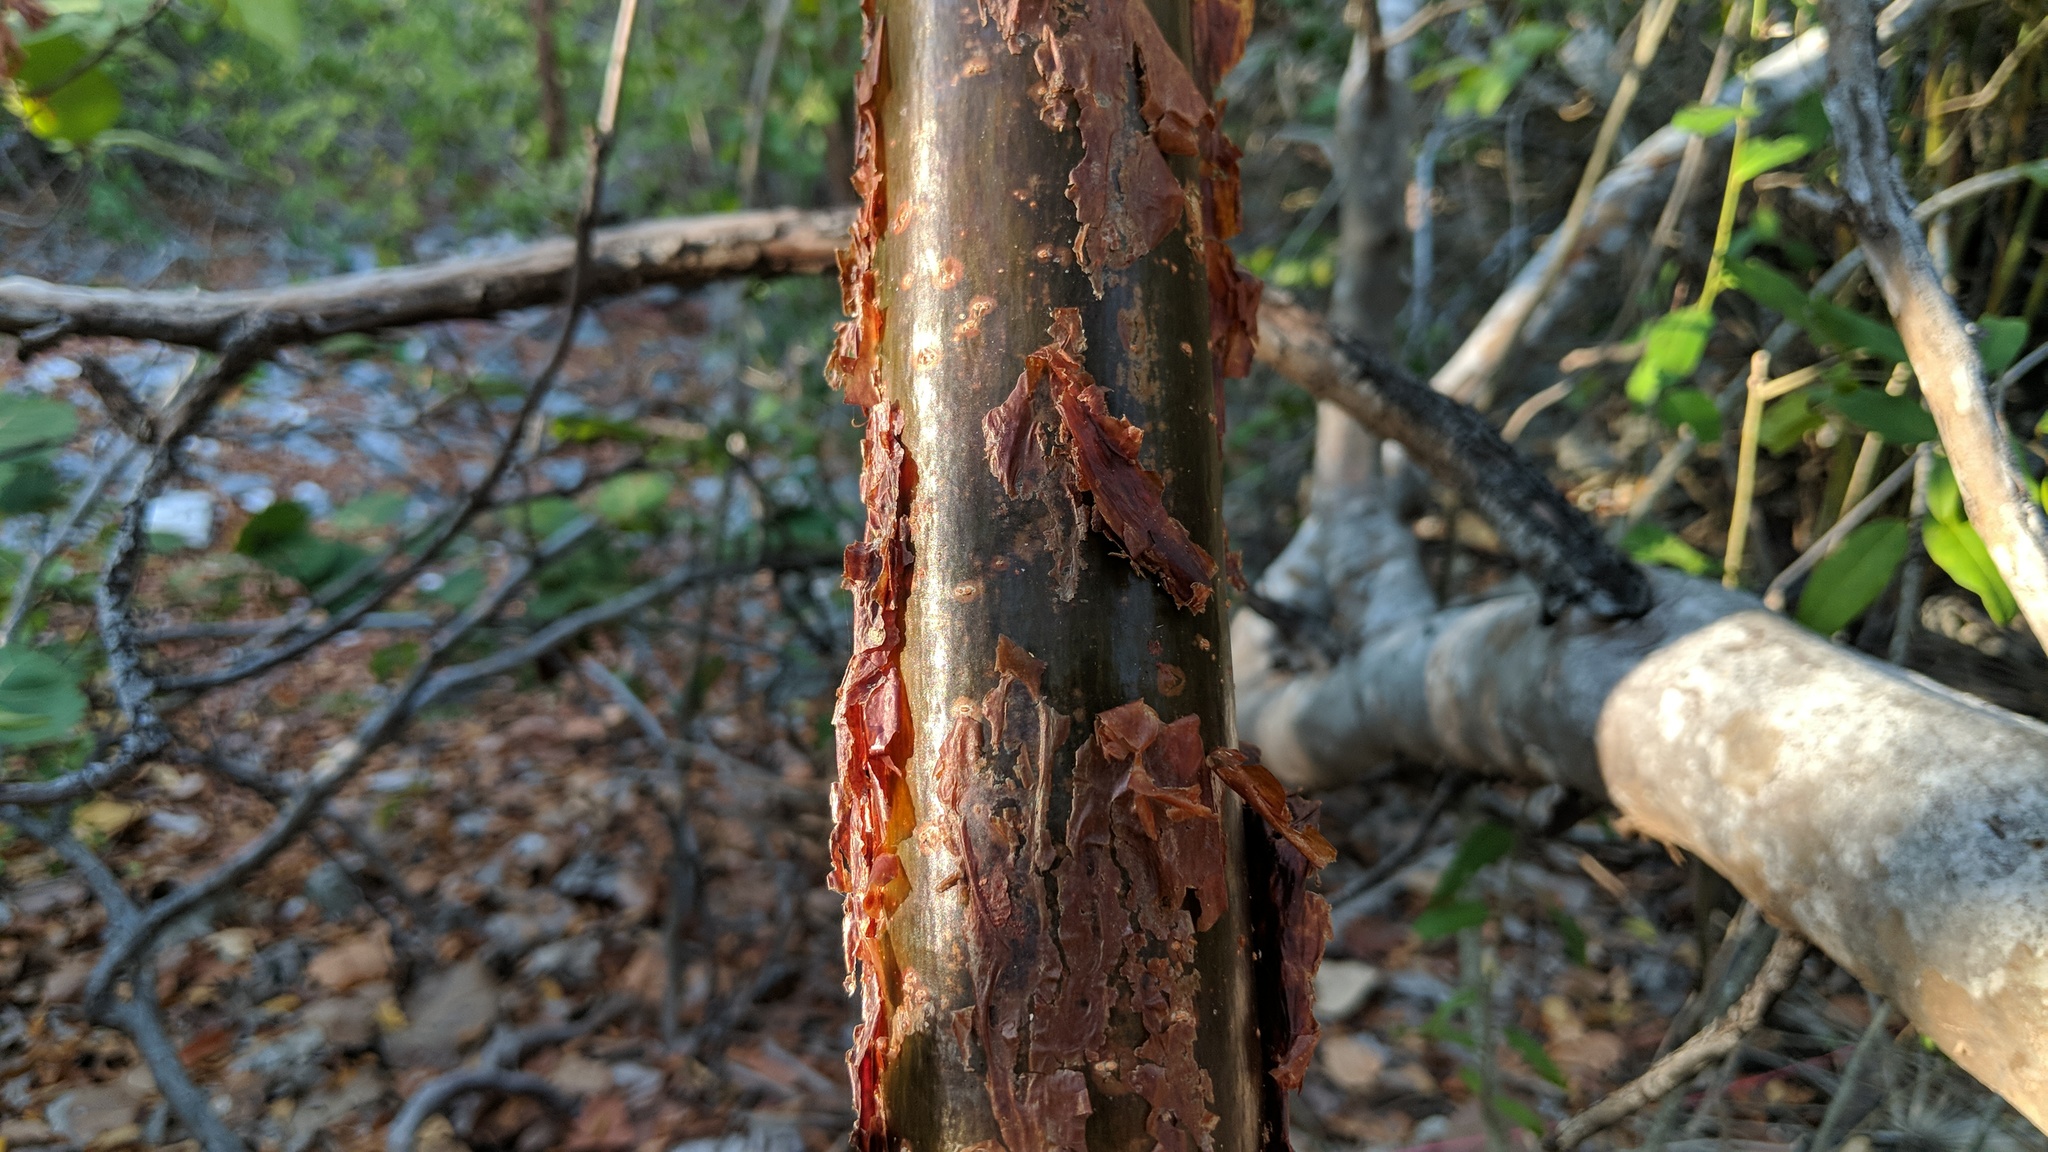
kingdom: Plantae
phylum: Tracheophyta
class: Magnoliopsida
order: Sapindales
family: Burseraceae
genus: Bursera
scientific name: Bursera simaruba
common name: Turpentine tree
